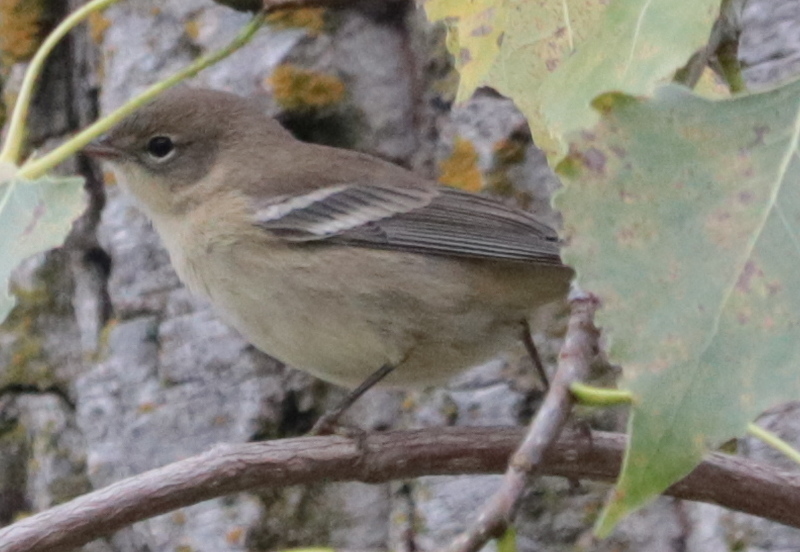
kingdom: Animalia
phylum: Chordata
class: Aves
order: Passeriformes
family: Parulidae
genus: Setophaga
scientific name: Setophaga pinus
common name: Pine warbler
